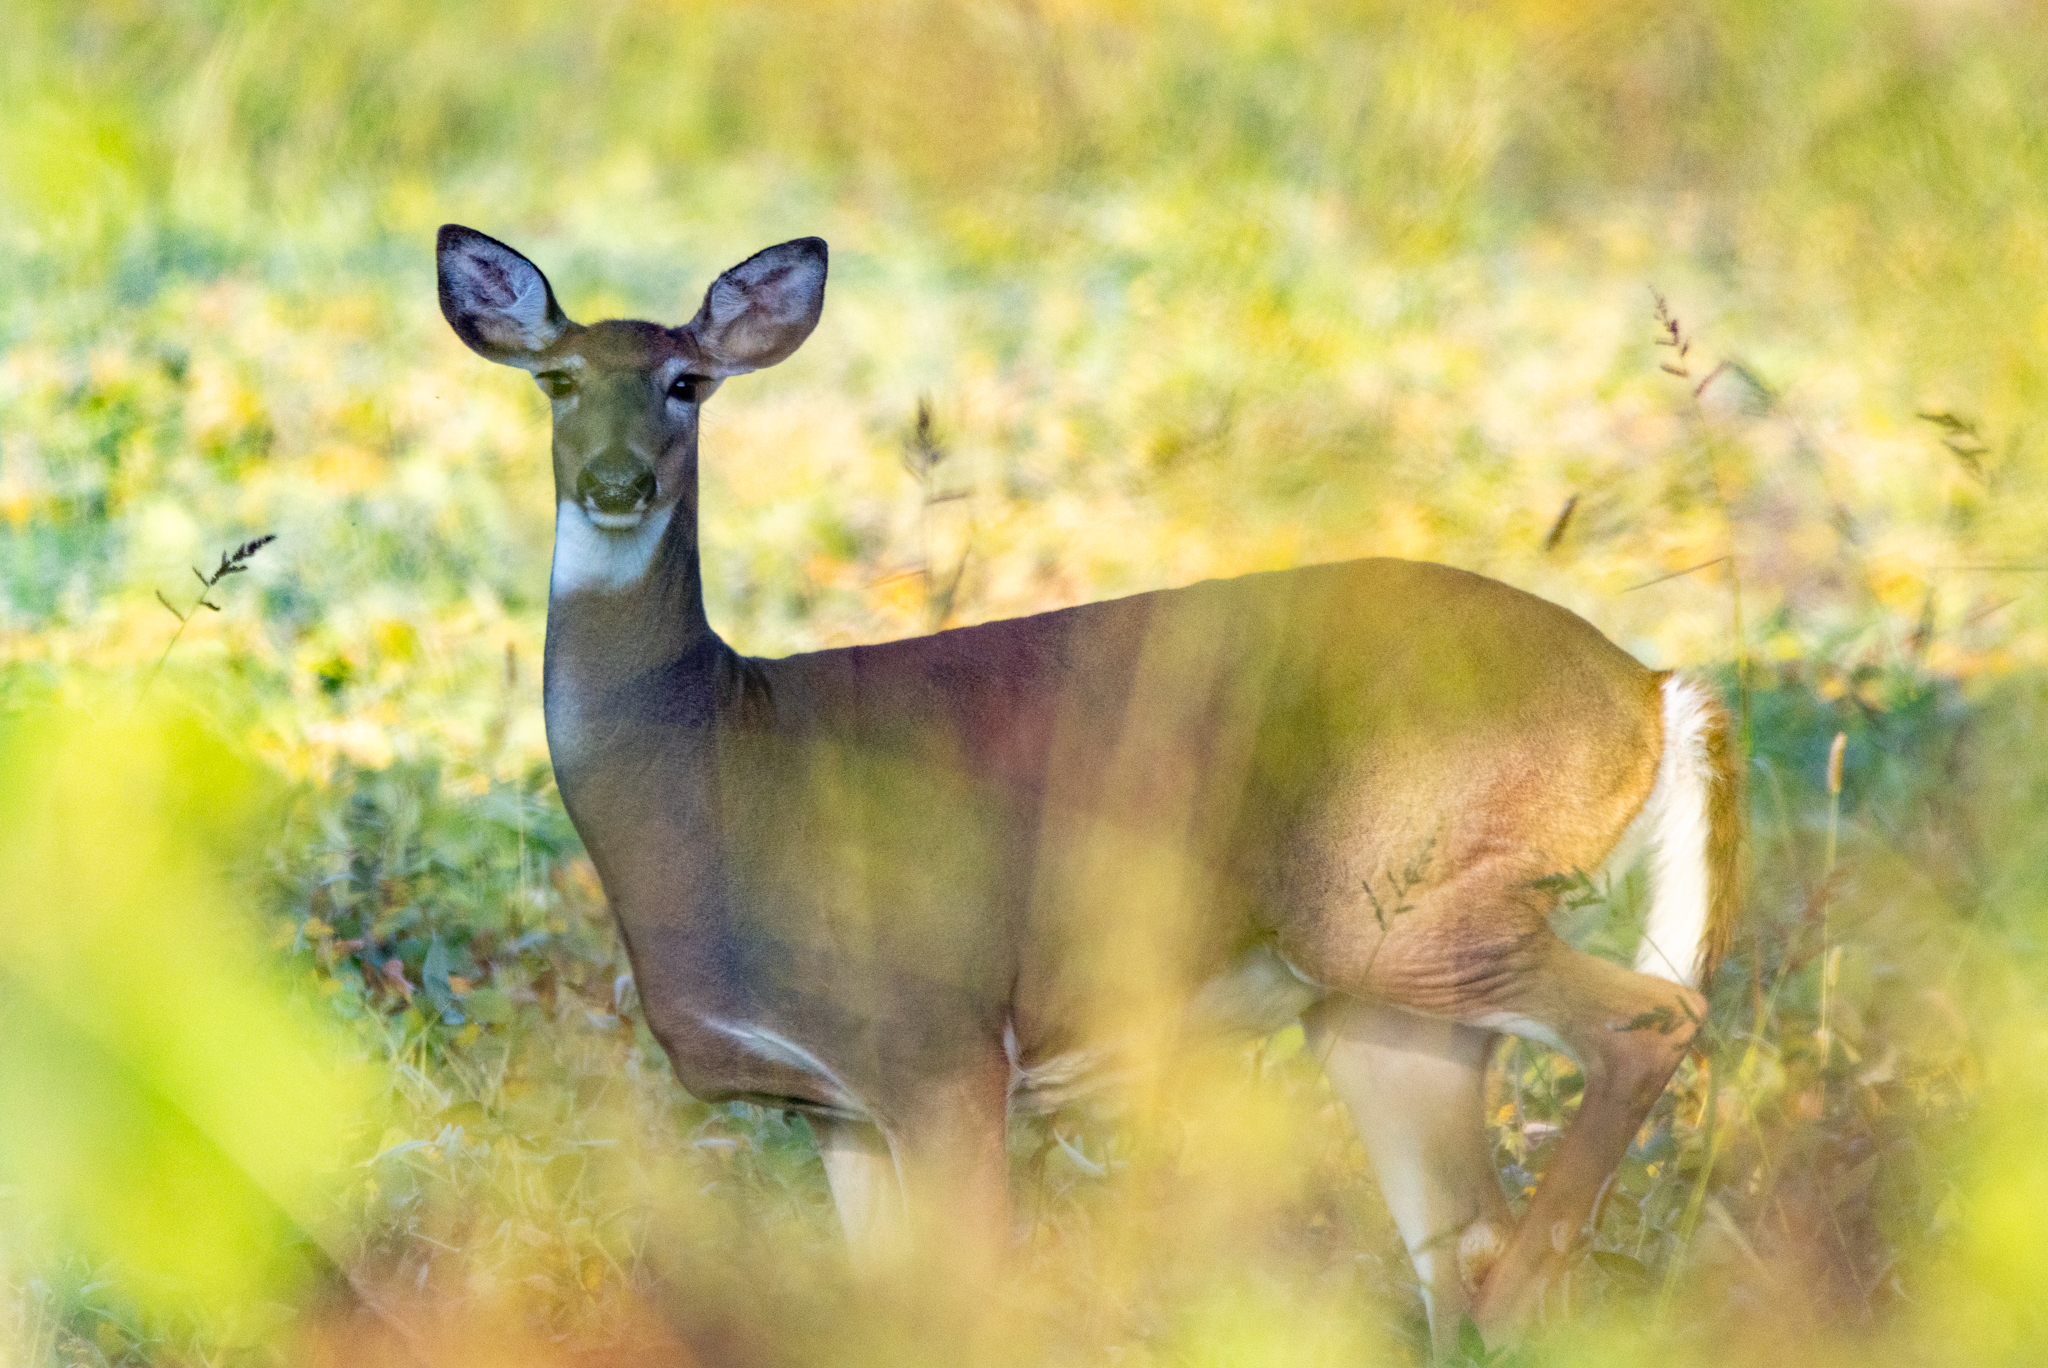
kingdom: Animalia
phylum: Chordata
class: Mammalia
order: Artiodactyla
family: Cervidae
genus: Odocoileus
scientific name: Odocoileus virginianus
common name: White-tailed deer
